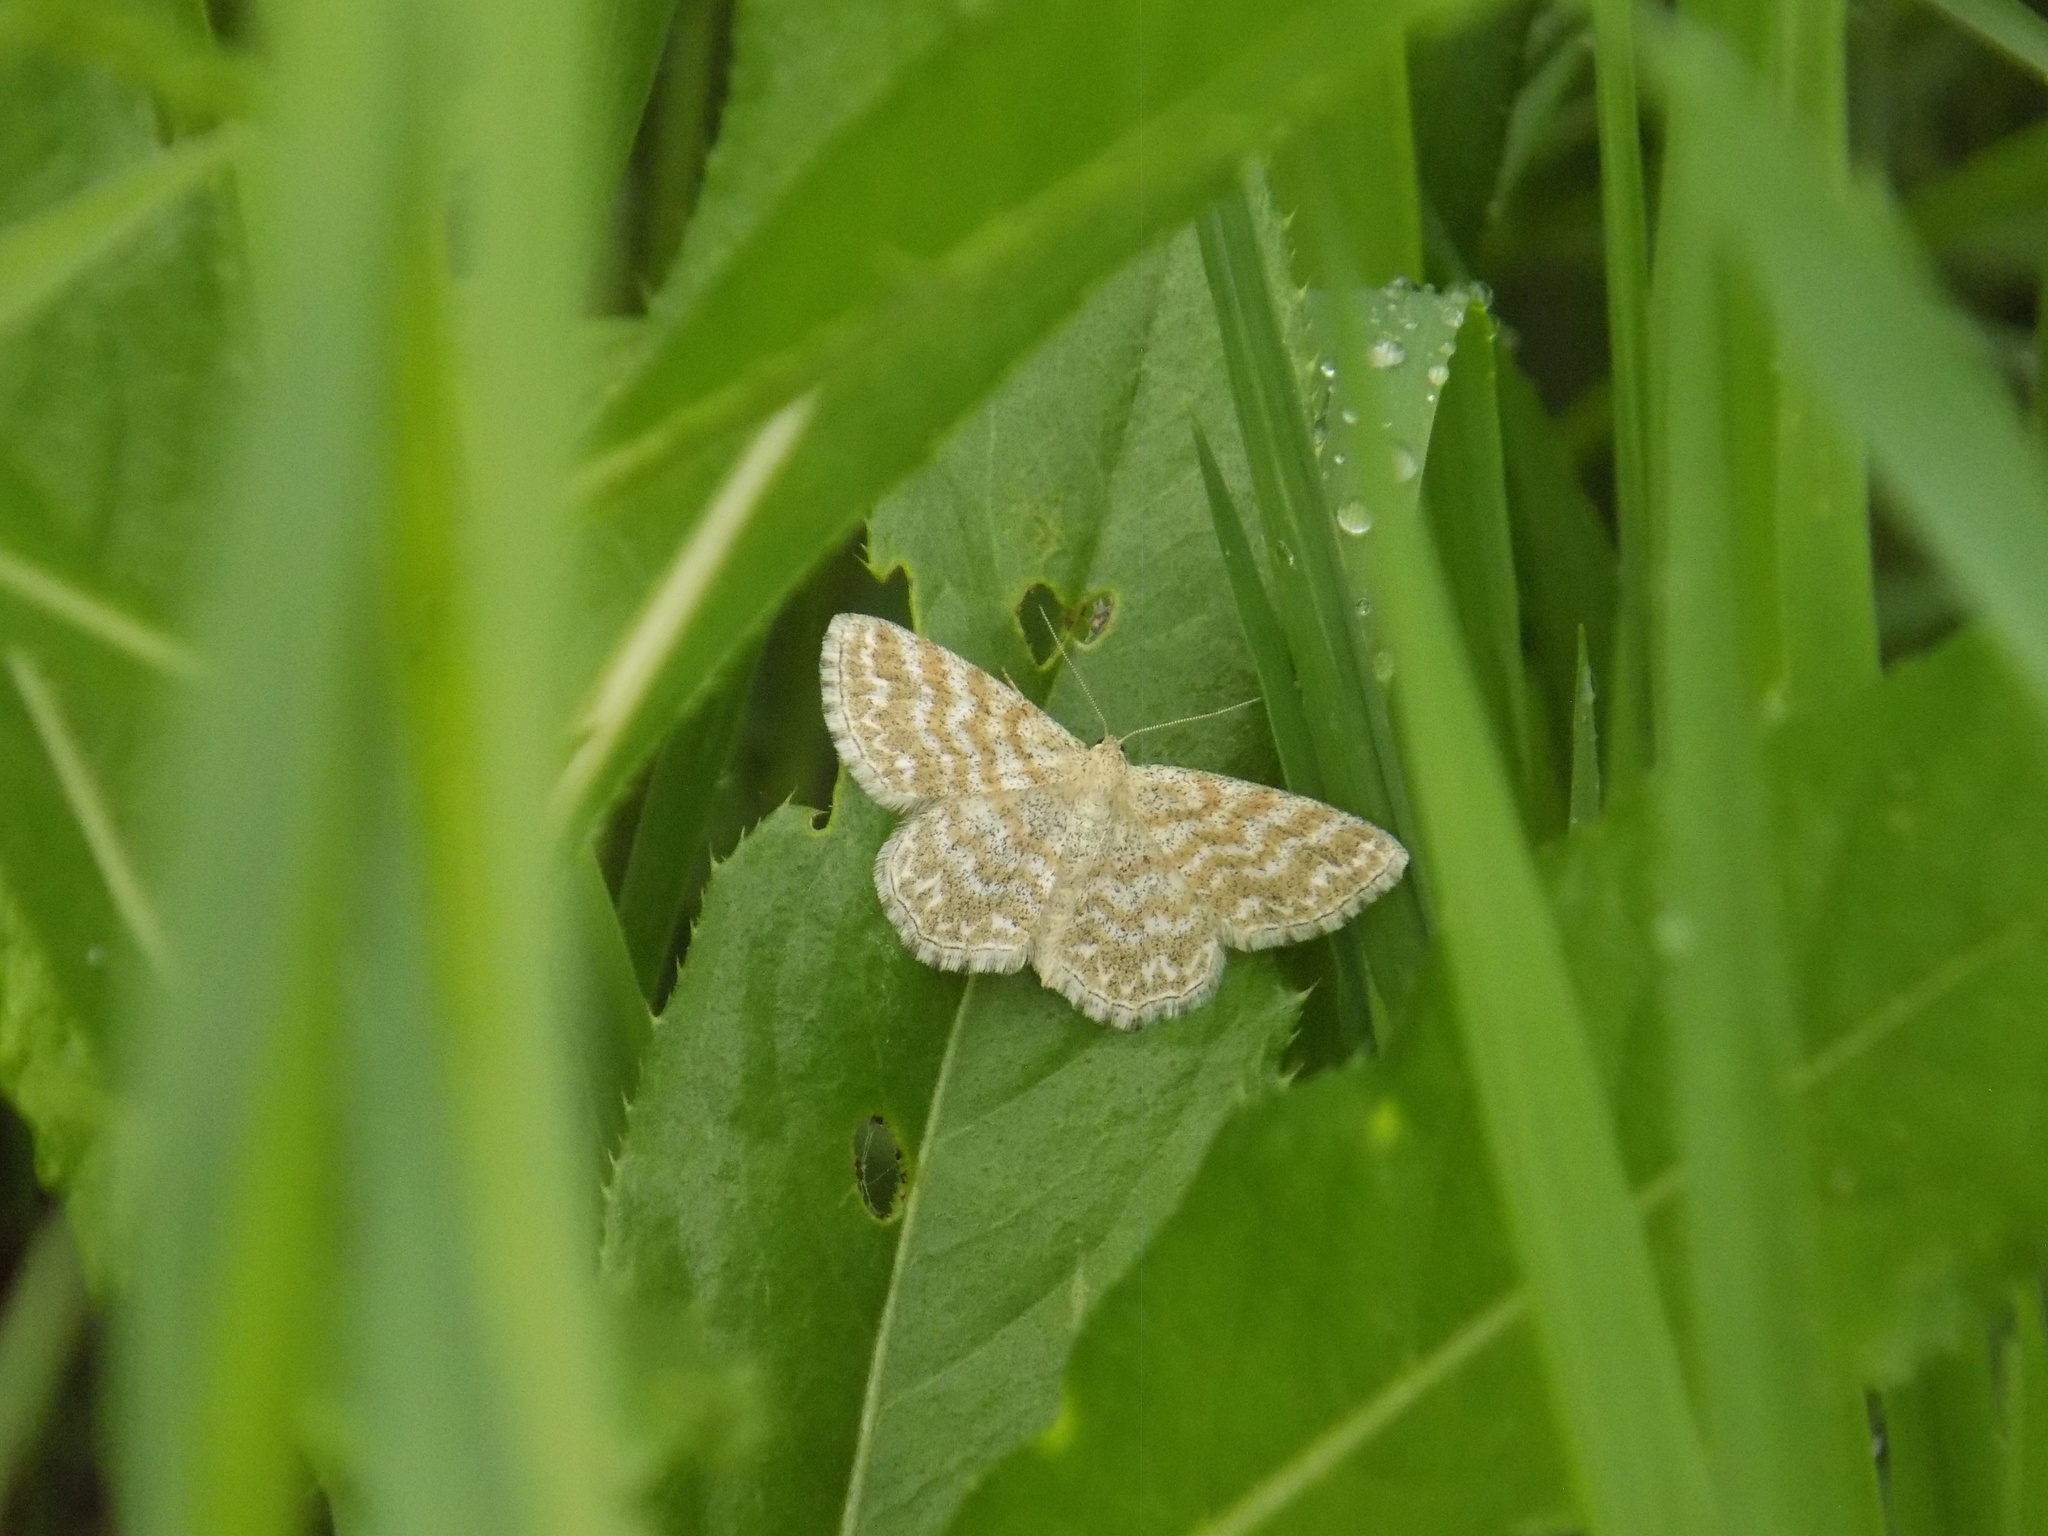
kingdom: Animalia
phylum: Arthropoda
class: Insecta
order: Lepidoptera
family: Geometridae
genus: Scopula
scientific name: Scopula immorata
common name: Lewes wave
